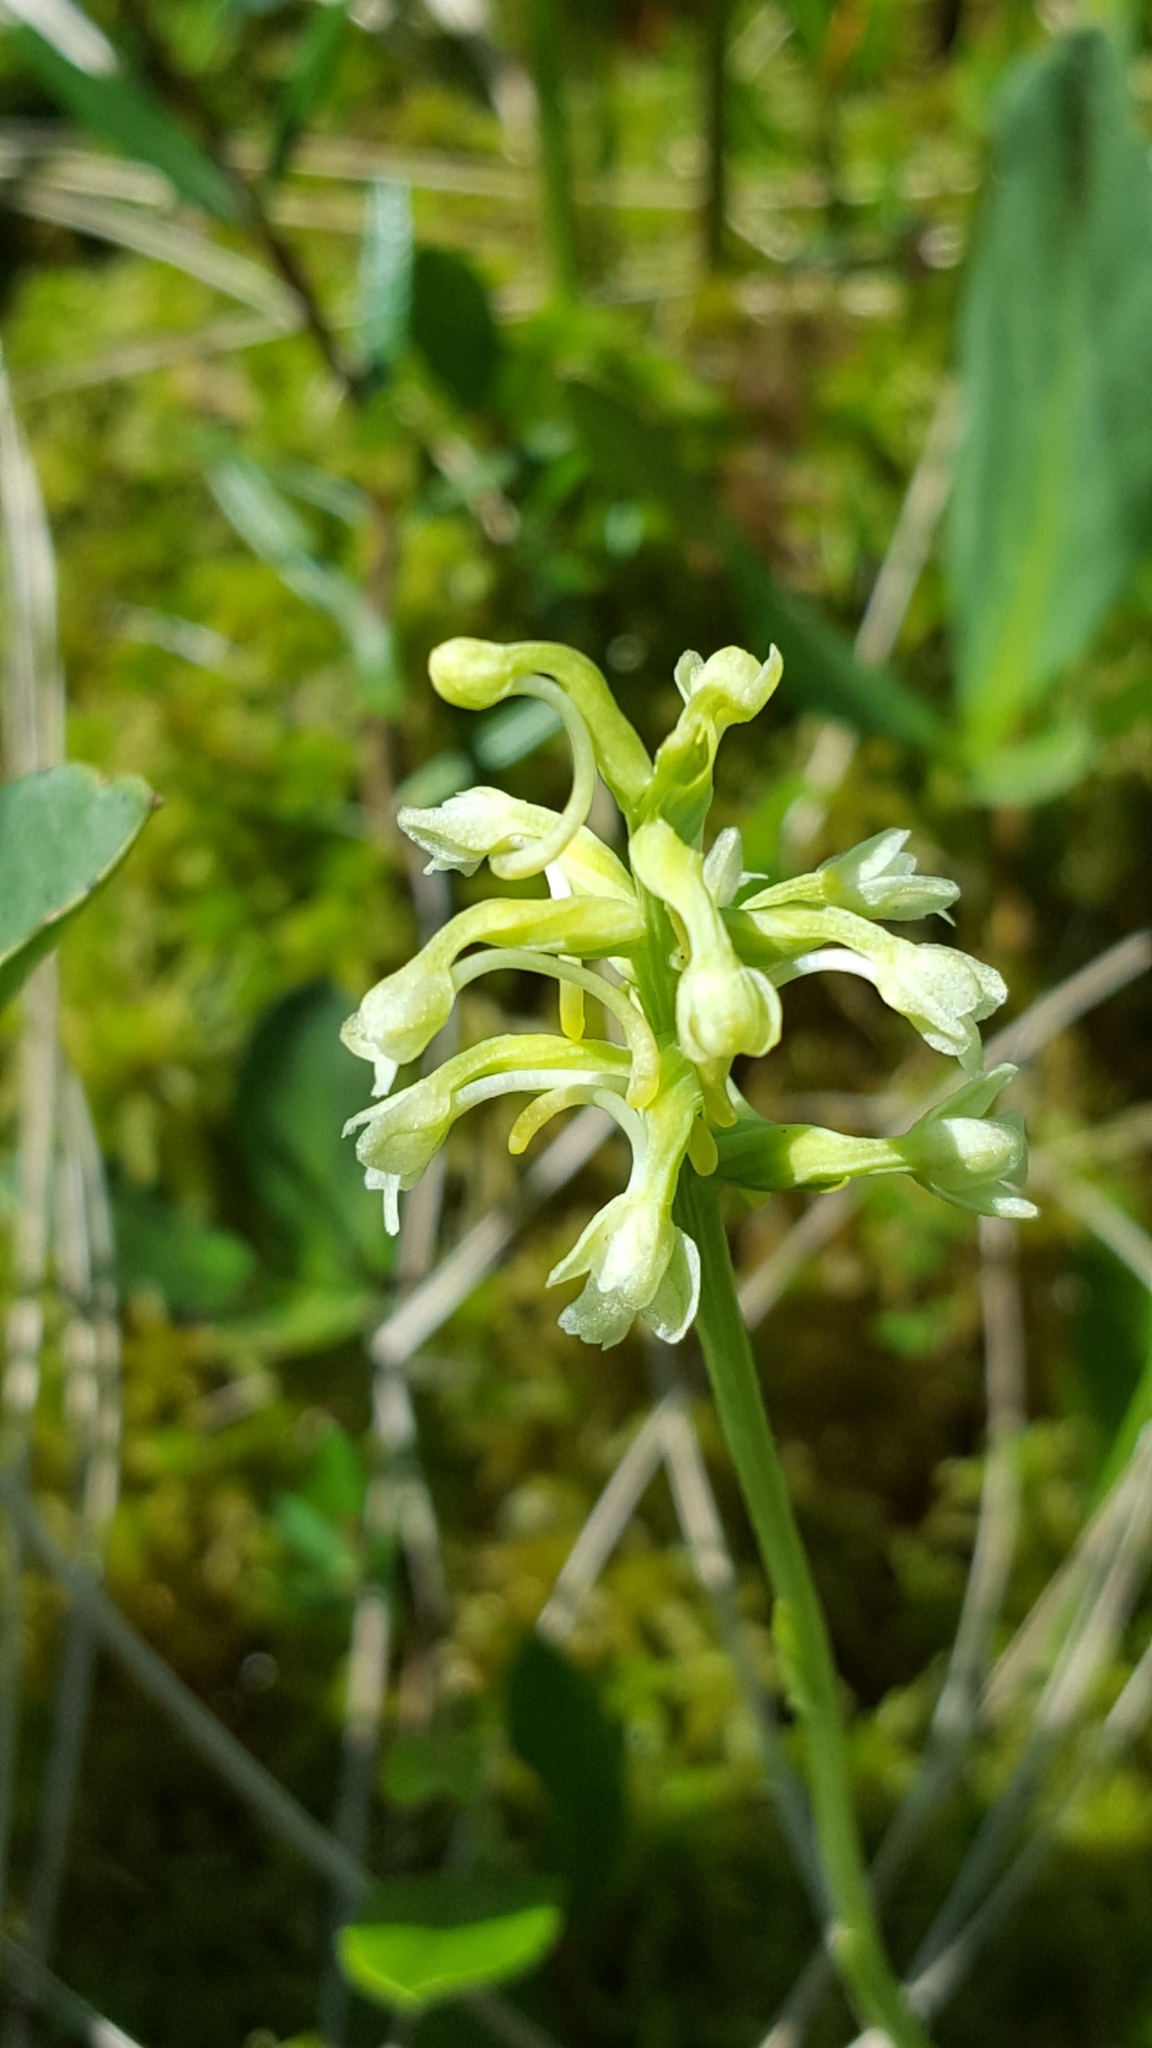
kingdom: Plantae
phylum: Tracheophyta
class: Liliopsida
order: Asparagales
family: Orchidaceae
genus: Platanthera
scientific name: Platanthera clavellata
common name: Club-spur orchid
